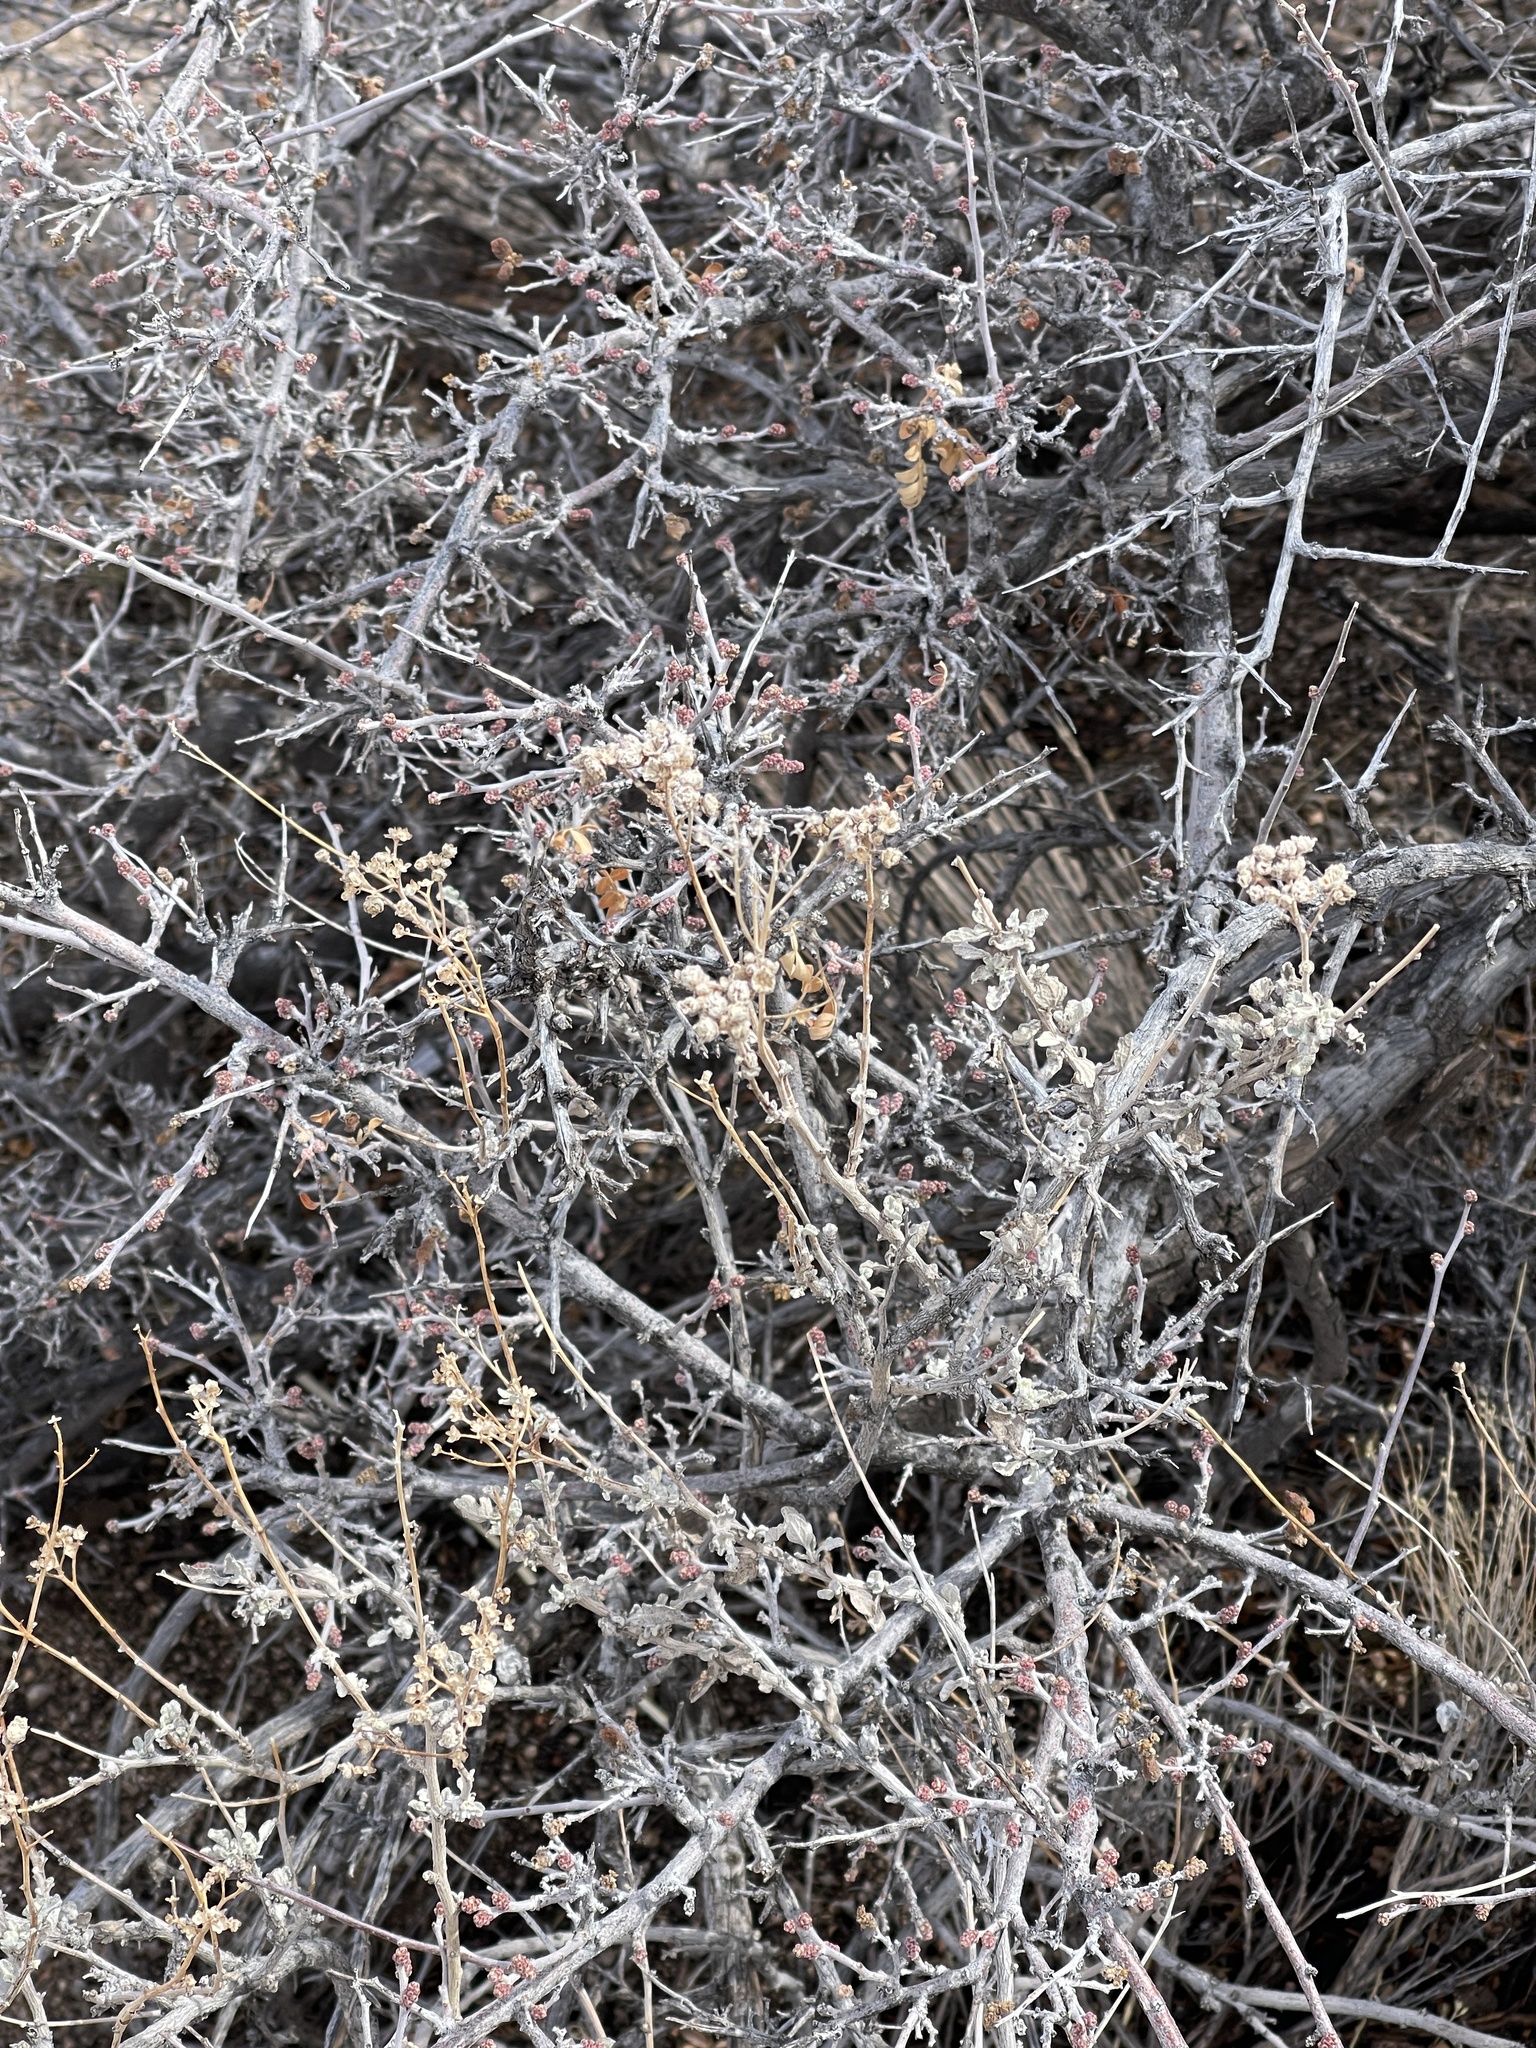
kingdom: Plantae
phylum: Tracheophyta
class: Magnoliopsida
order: Sapindales
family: Anacardiaceae
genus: Rhus
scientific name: Rhus microphylla
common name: Desert sumac
